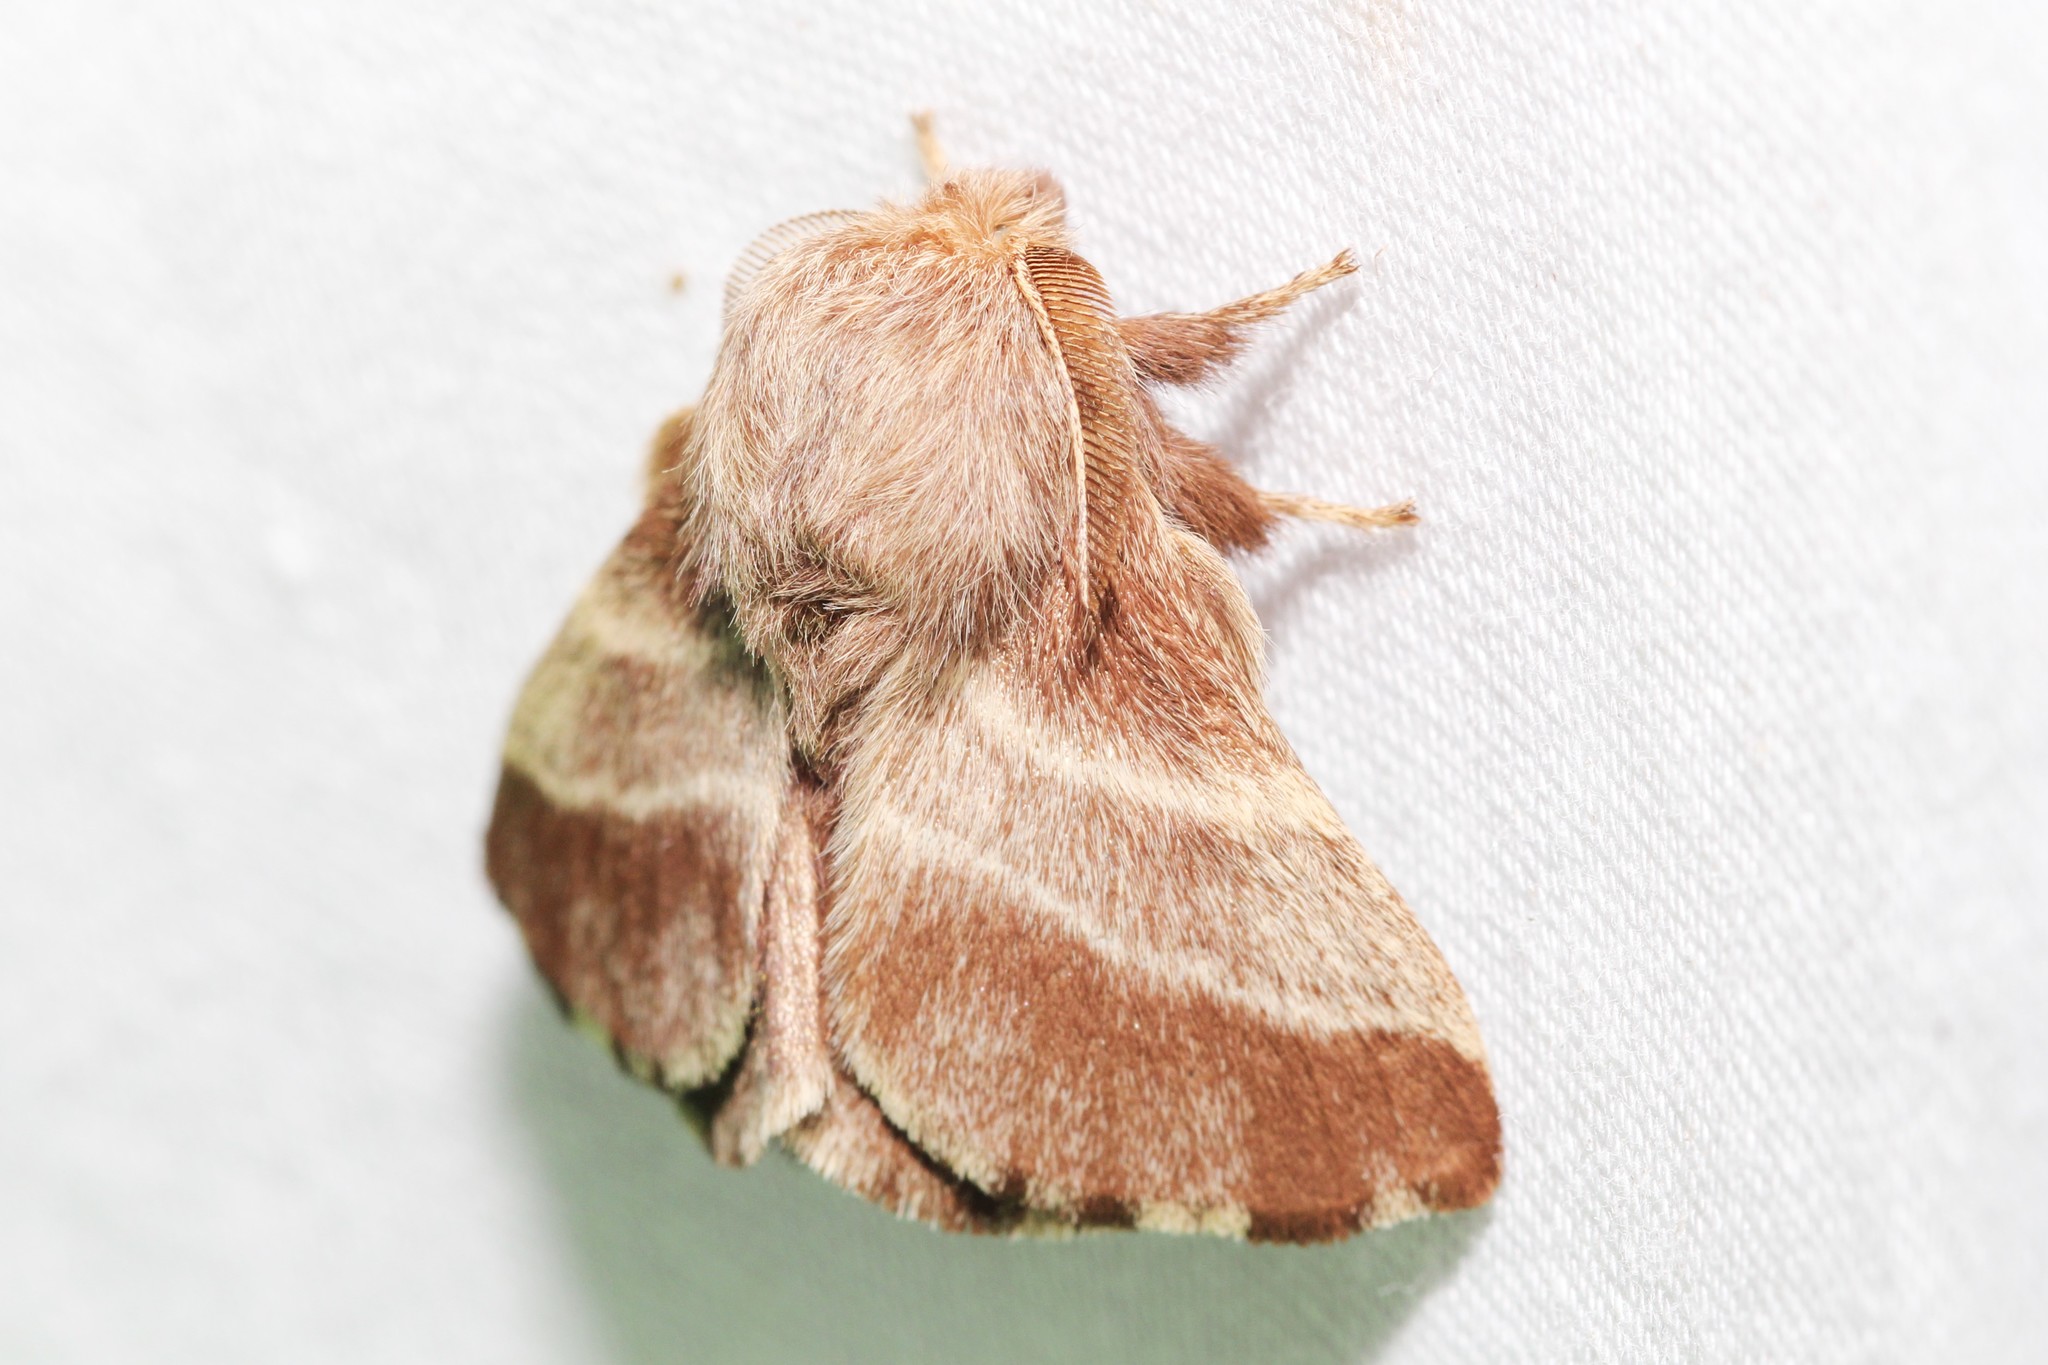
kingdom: Animalia
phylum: Arthropoda
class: Insecta
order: Lepidoptera
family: Lasiocampidae
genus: Malacosoma
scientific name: Malacosoma americana
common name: Eastern tent caterpillar moth
